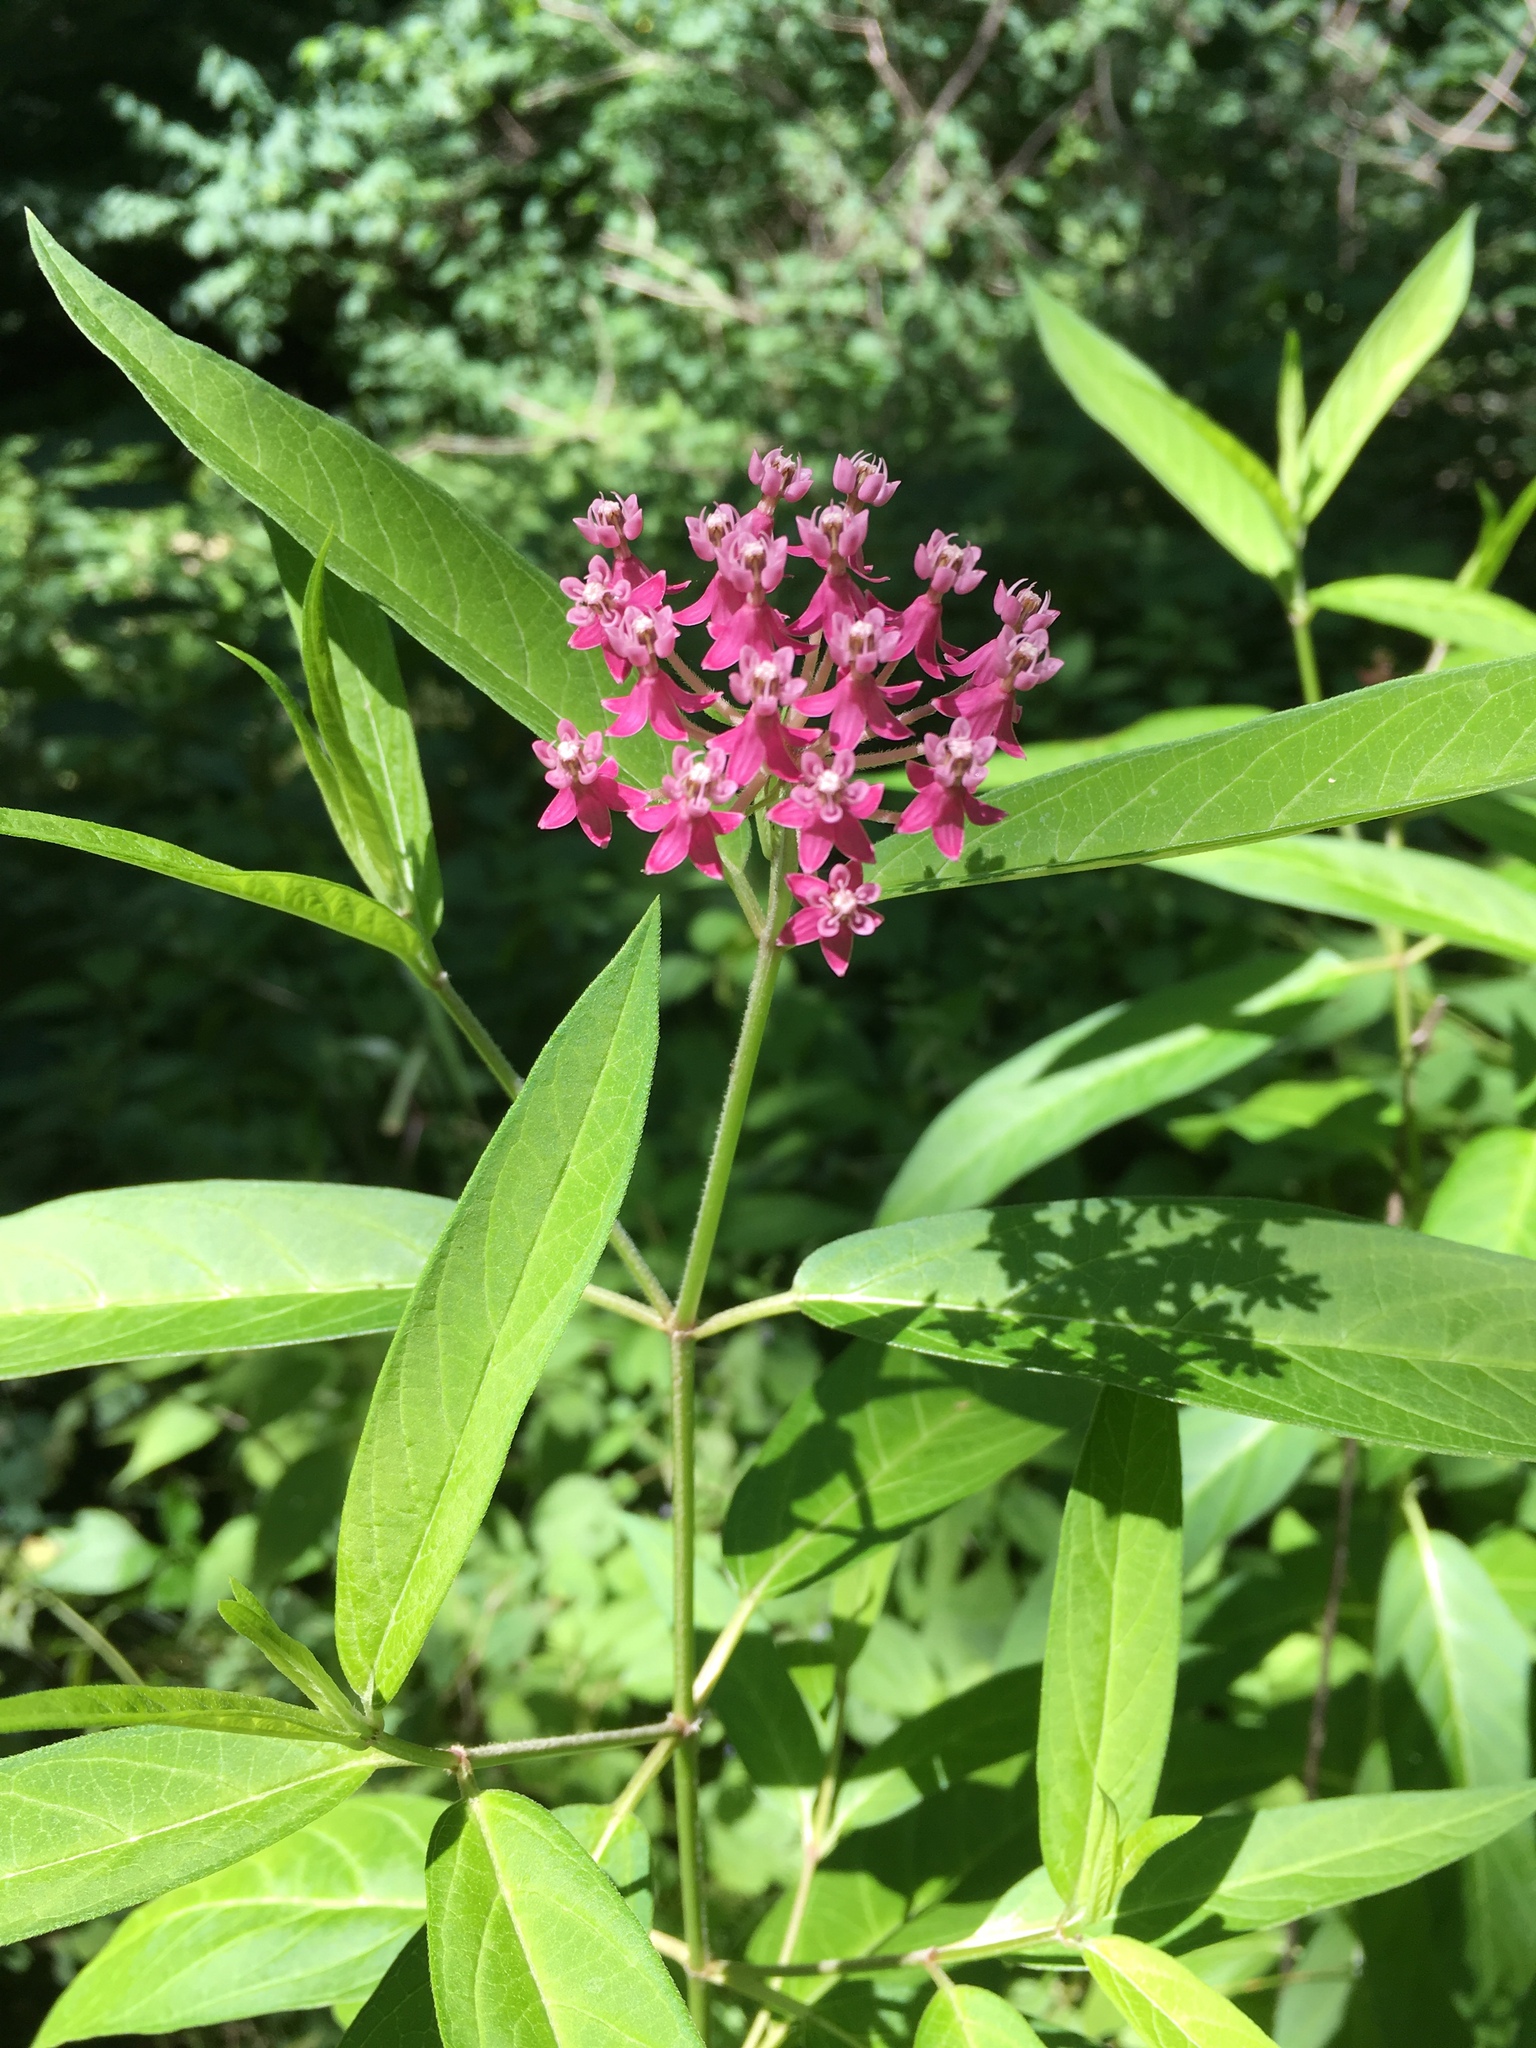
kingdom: Plantae
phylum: Tracheophyta
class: Magnoliopsida
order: Gentianales
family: Apocynaceae
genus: Asclepias
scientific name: Asclepias incarnata
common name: Swamp milkweed
